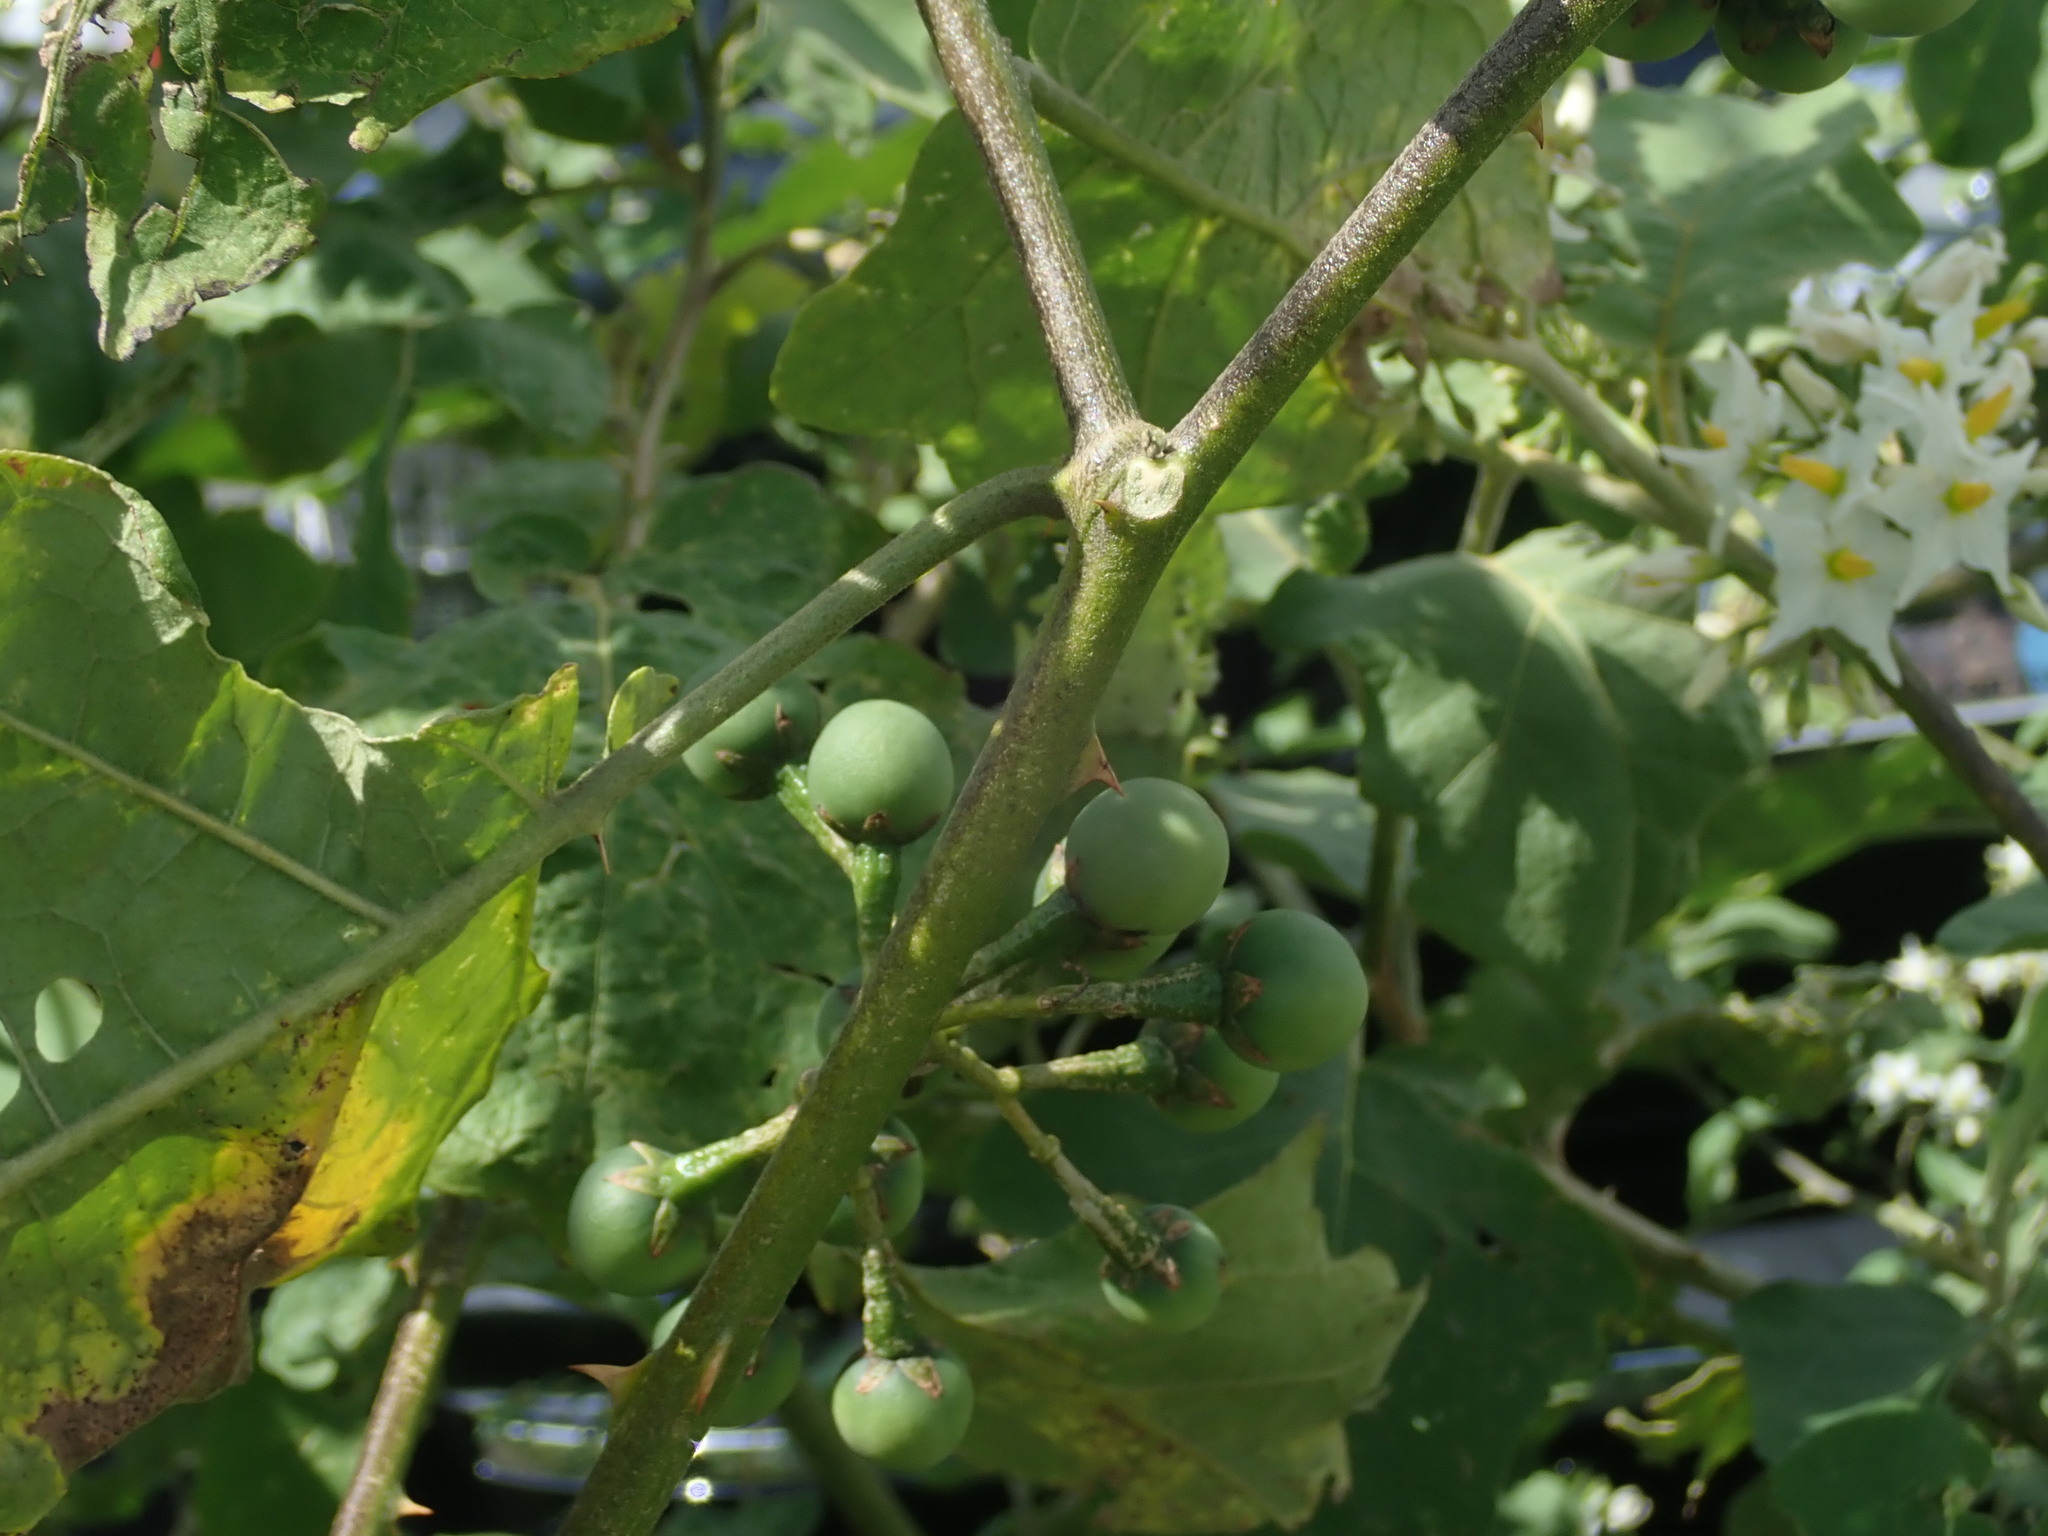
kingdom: Plantae
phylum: Tracheophyta
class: Magnoliopsida
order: Solanales
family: Solanaceae
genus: Solanum
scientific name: Solanum torvum
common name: Turkey berry
